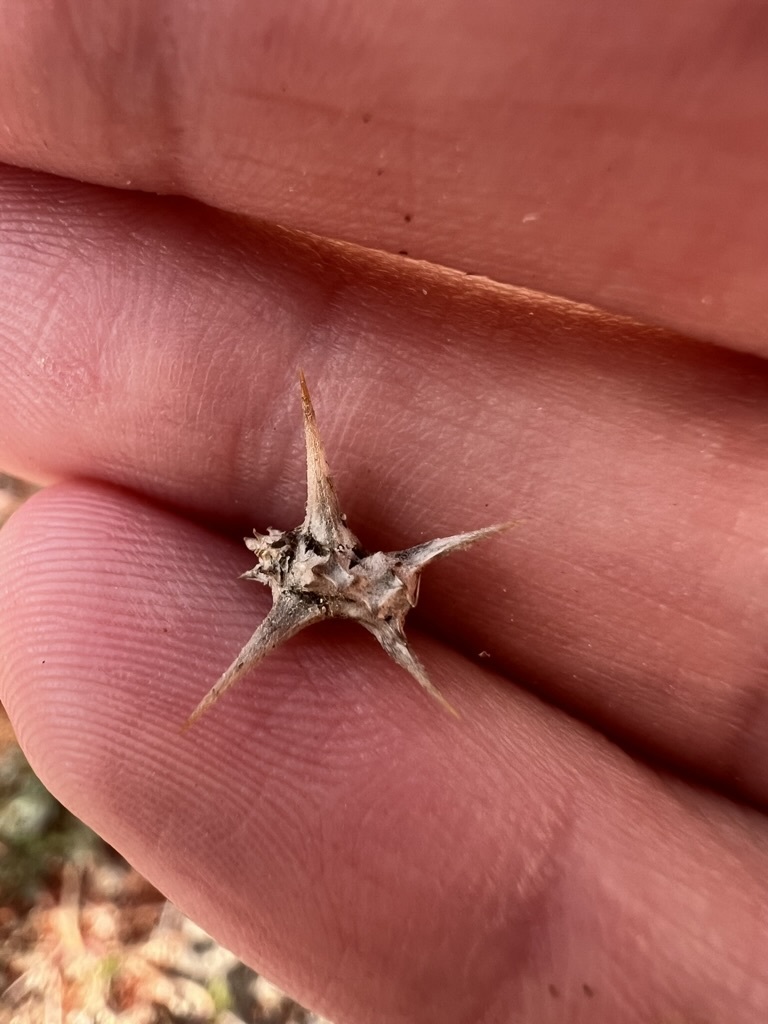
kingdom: Plantae
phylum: Tracheophyta
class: Magnoliopsida
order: Zygophyllales
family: Zygophyllaceae
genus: Tribulus
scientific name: Tribulus terrestris
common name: Puncturevine
